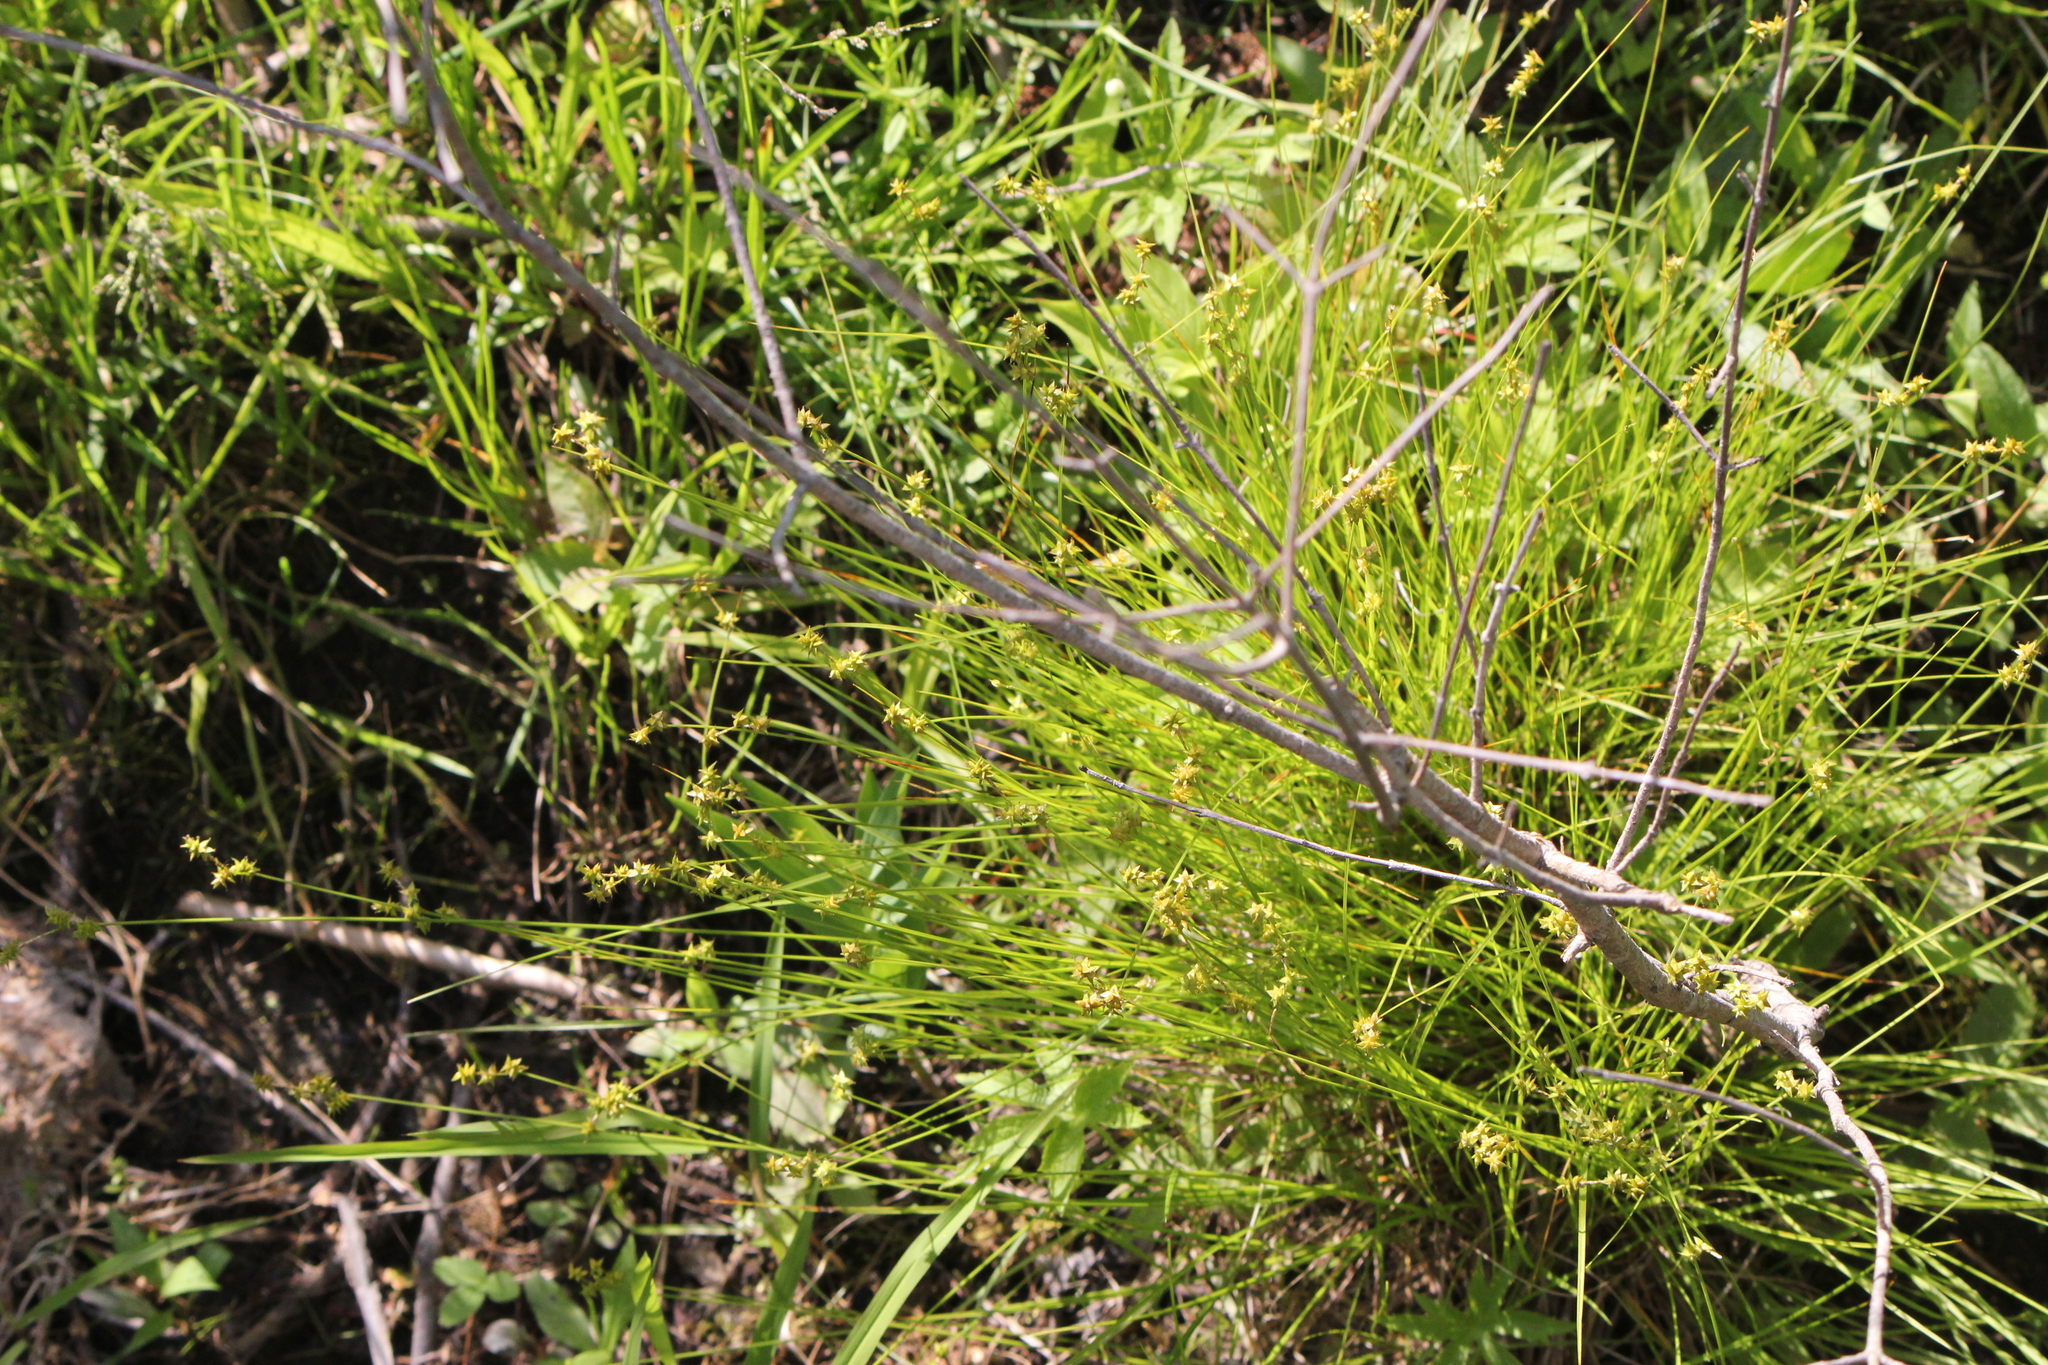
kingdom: Plantae
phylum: Tracheophyta
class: Liliopsida
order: Poales
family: Cyperaceae
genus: Carex
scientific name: Carex interior
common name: Inland sedge
